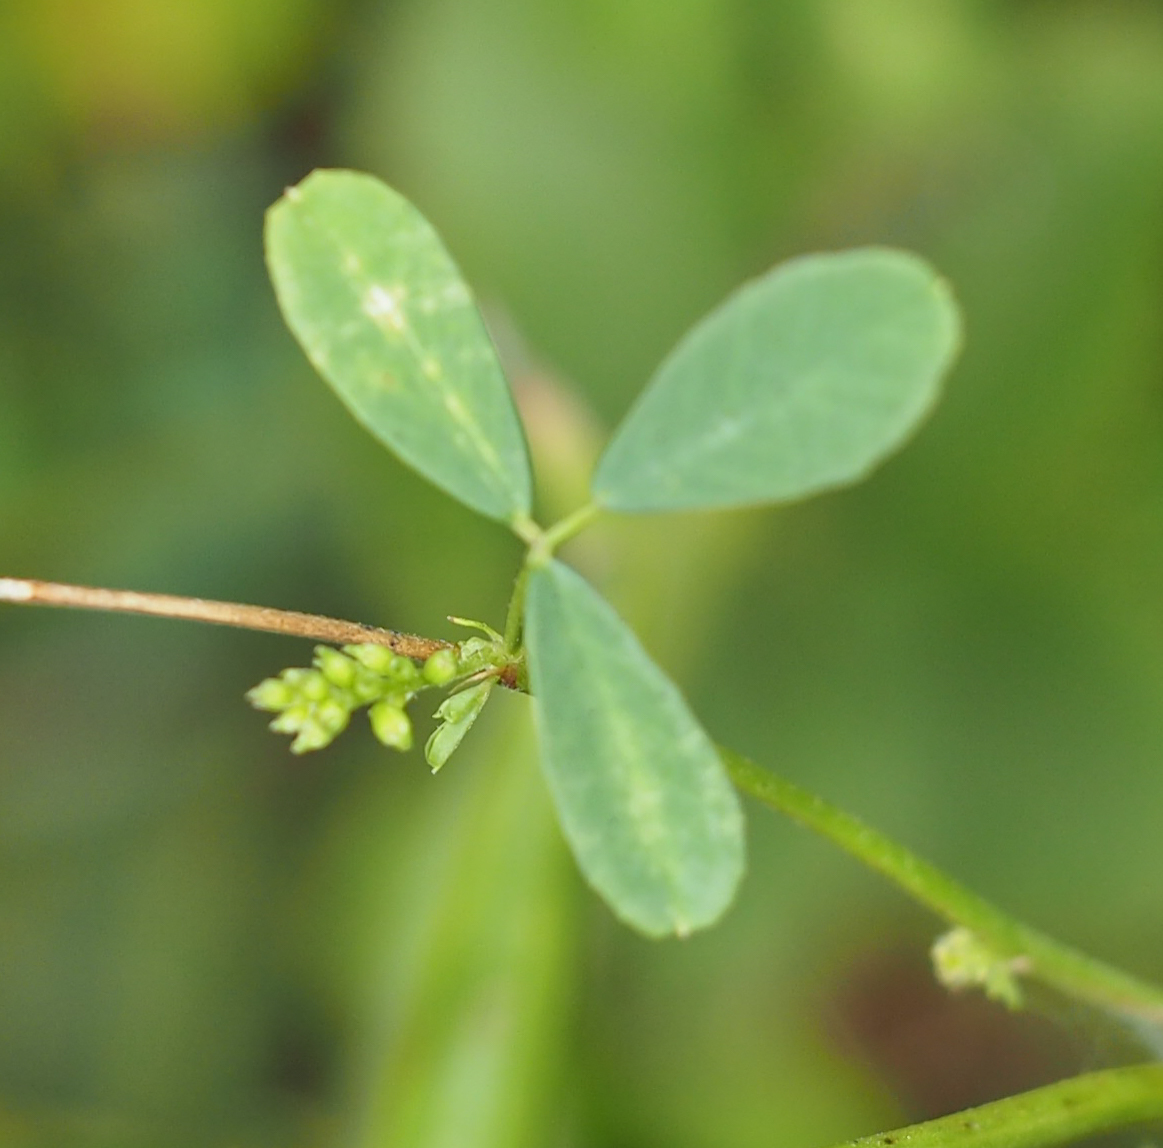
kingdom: Plantae
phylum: Tracheophyta
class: Magnoliopsida
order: Fabales
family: Fabaceae
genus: Melilotus
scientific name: Melilotus albus
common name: White melilot
